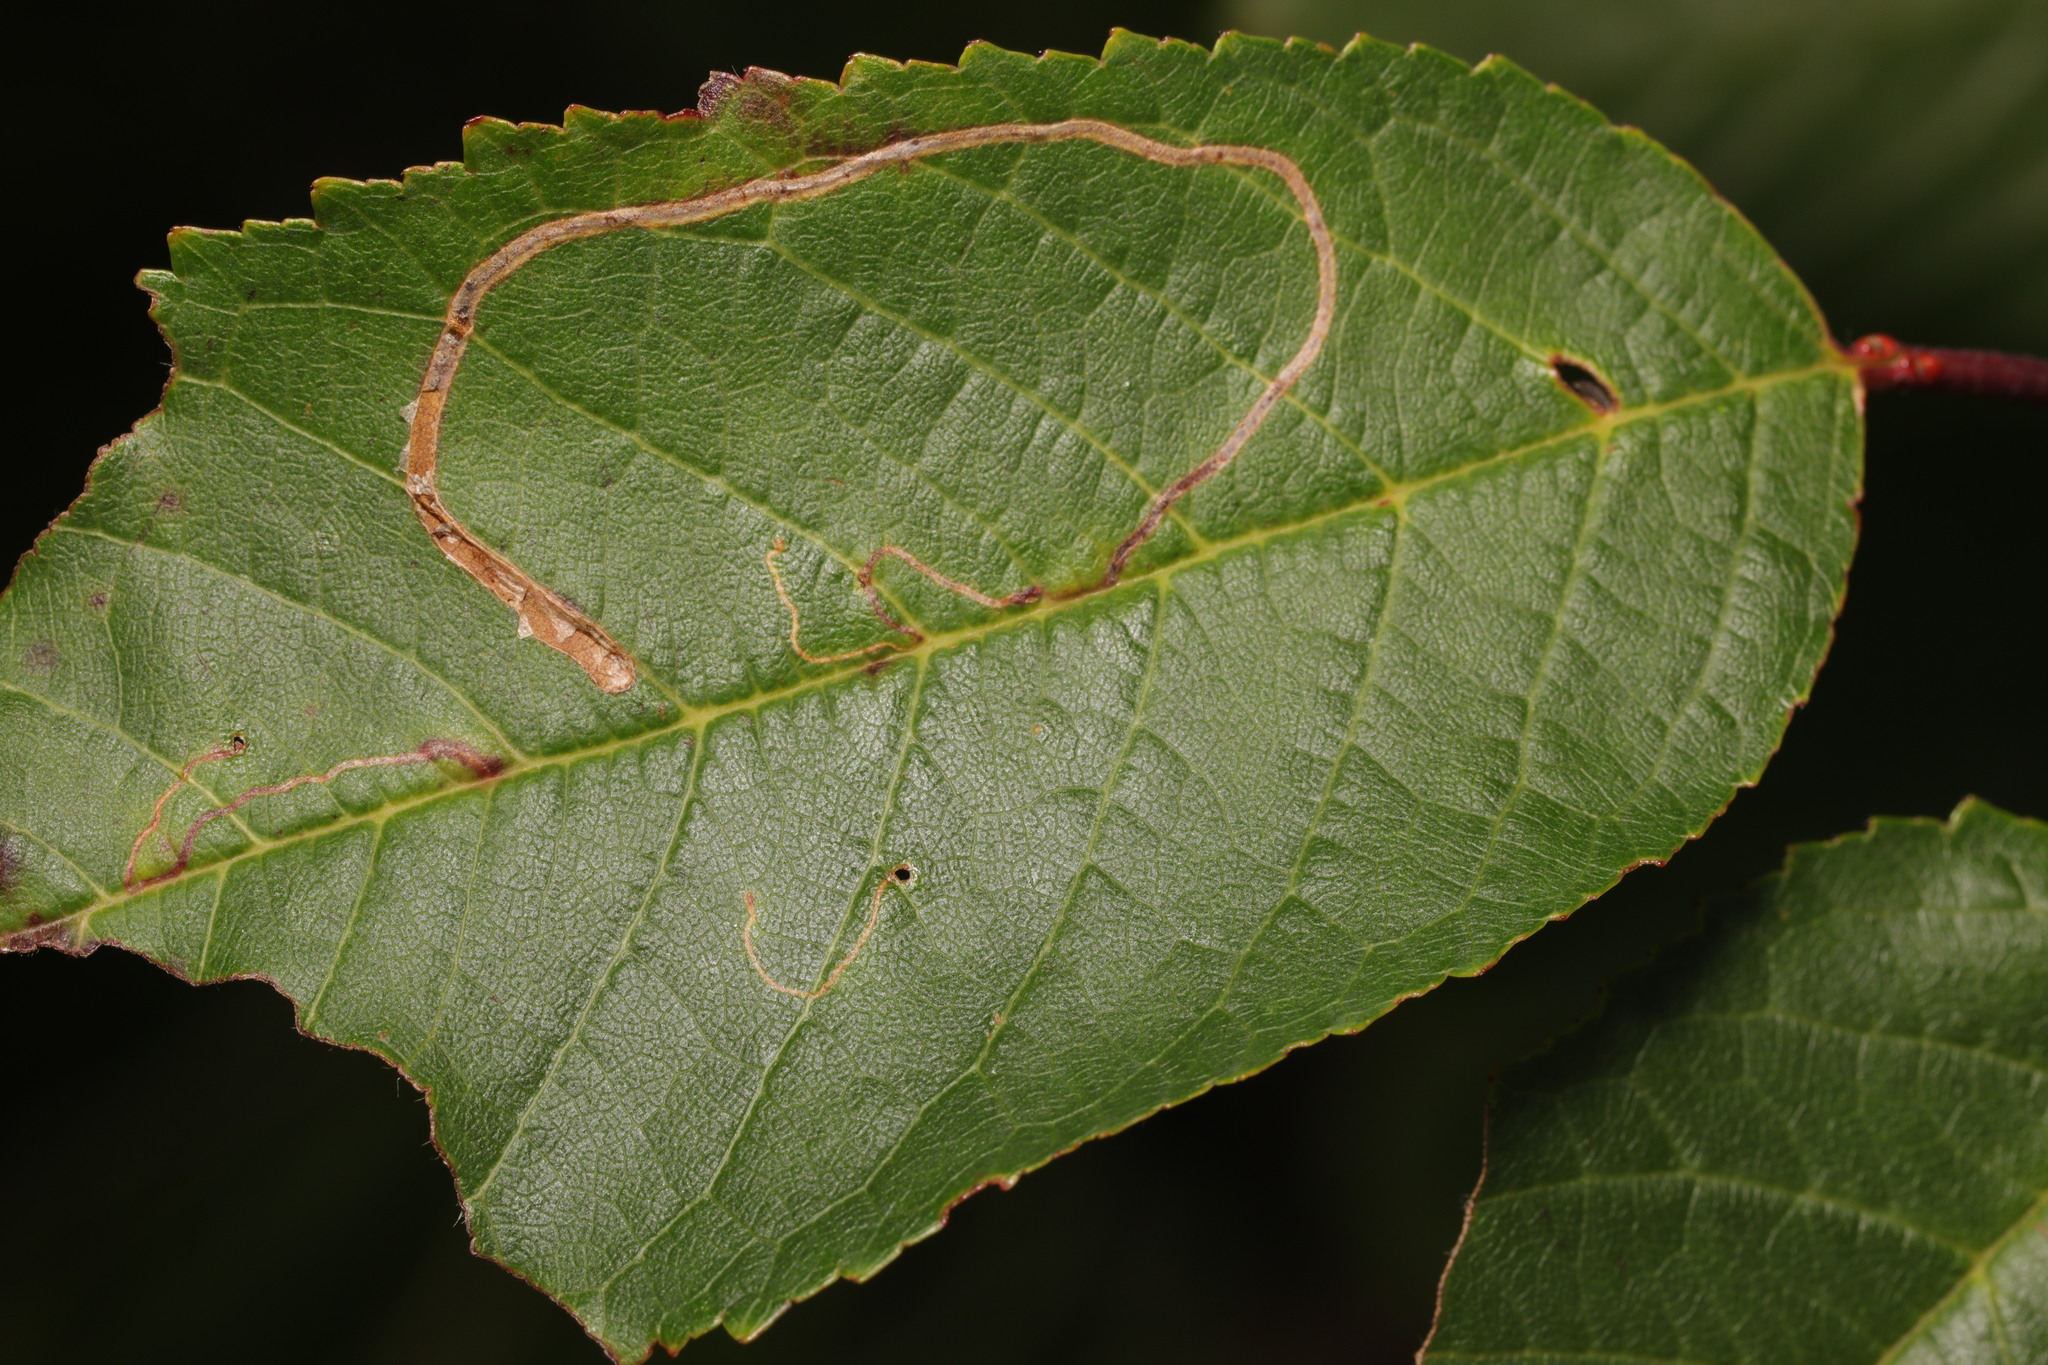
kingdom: Animalia
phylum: Arthropoda
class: Insecta
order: Lepidoptera
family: Lyonetiidae
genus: Lyonetia
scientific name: Lyonetia clerkella
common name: Apple leaf miner
